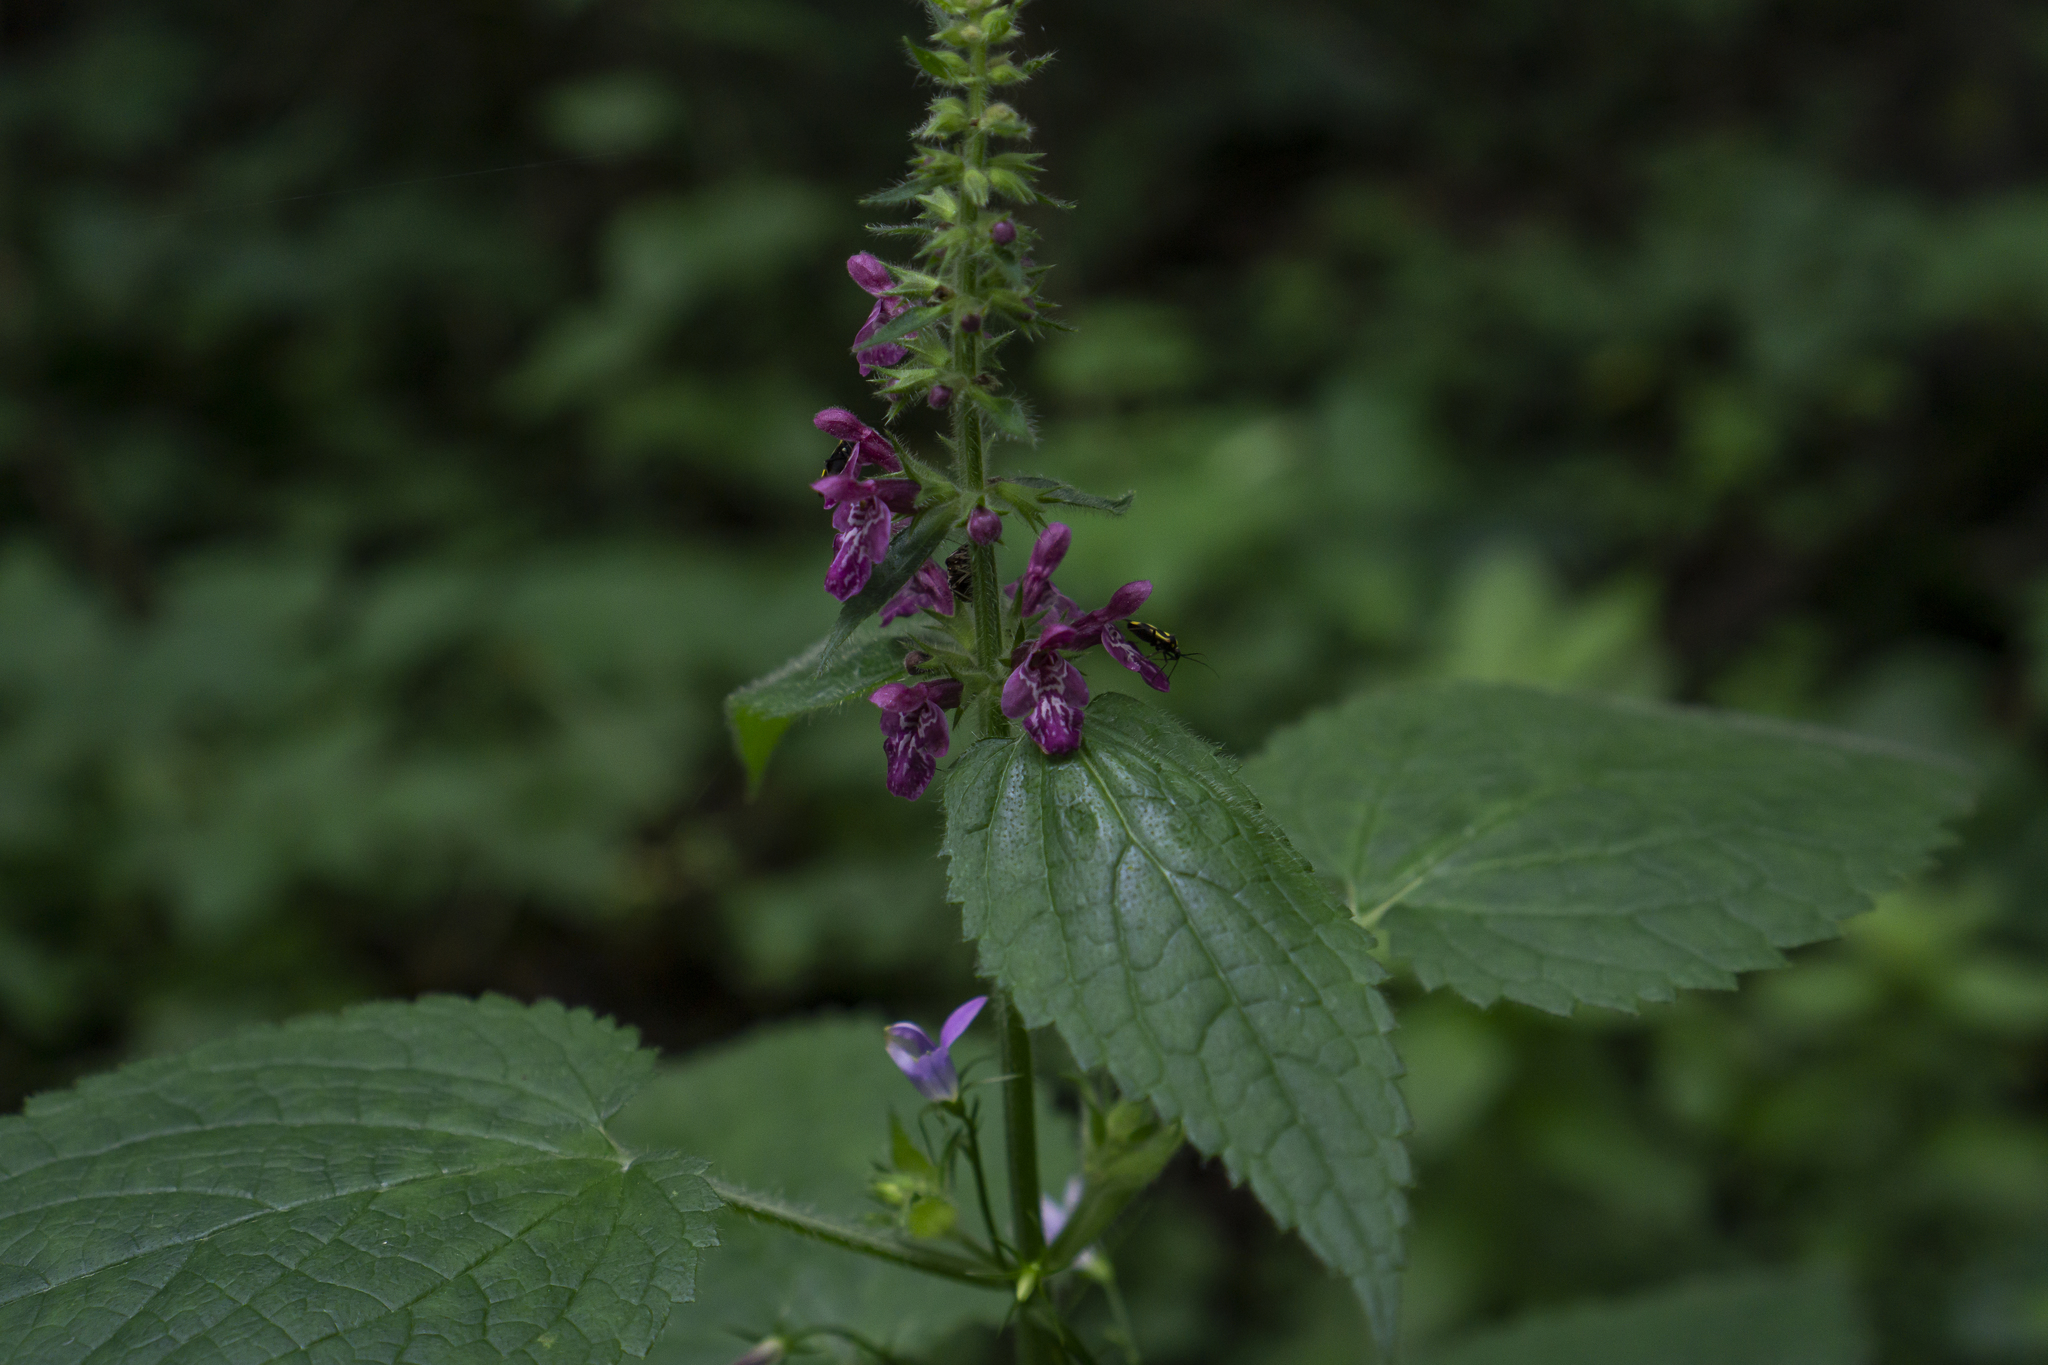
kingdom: Plantae
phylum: Tracheophyta
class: Magnoliopsida
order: Lamiales
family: Lamiaceae
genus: Stachys
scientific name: Stachys sylvatica
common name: Hedge woundwort
